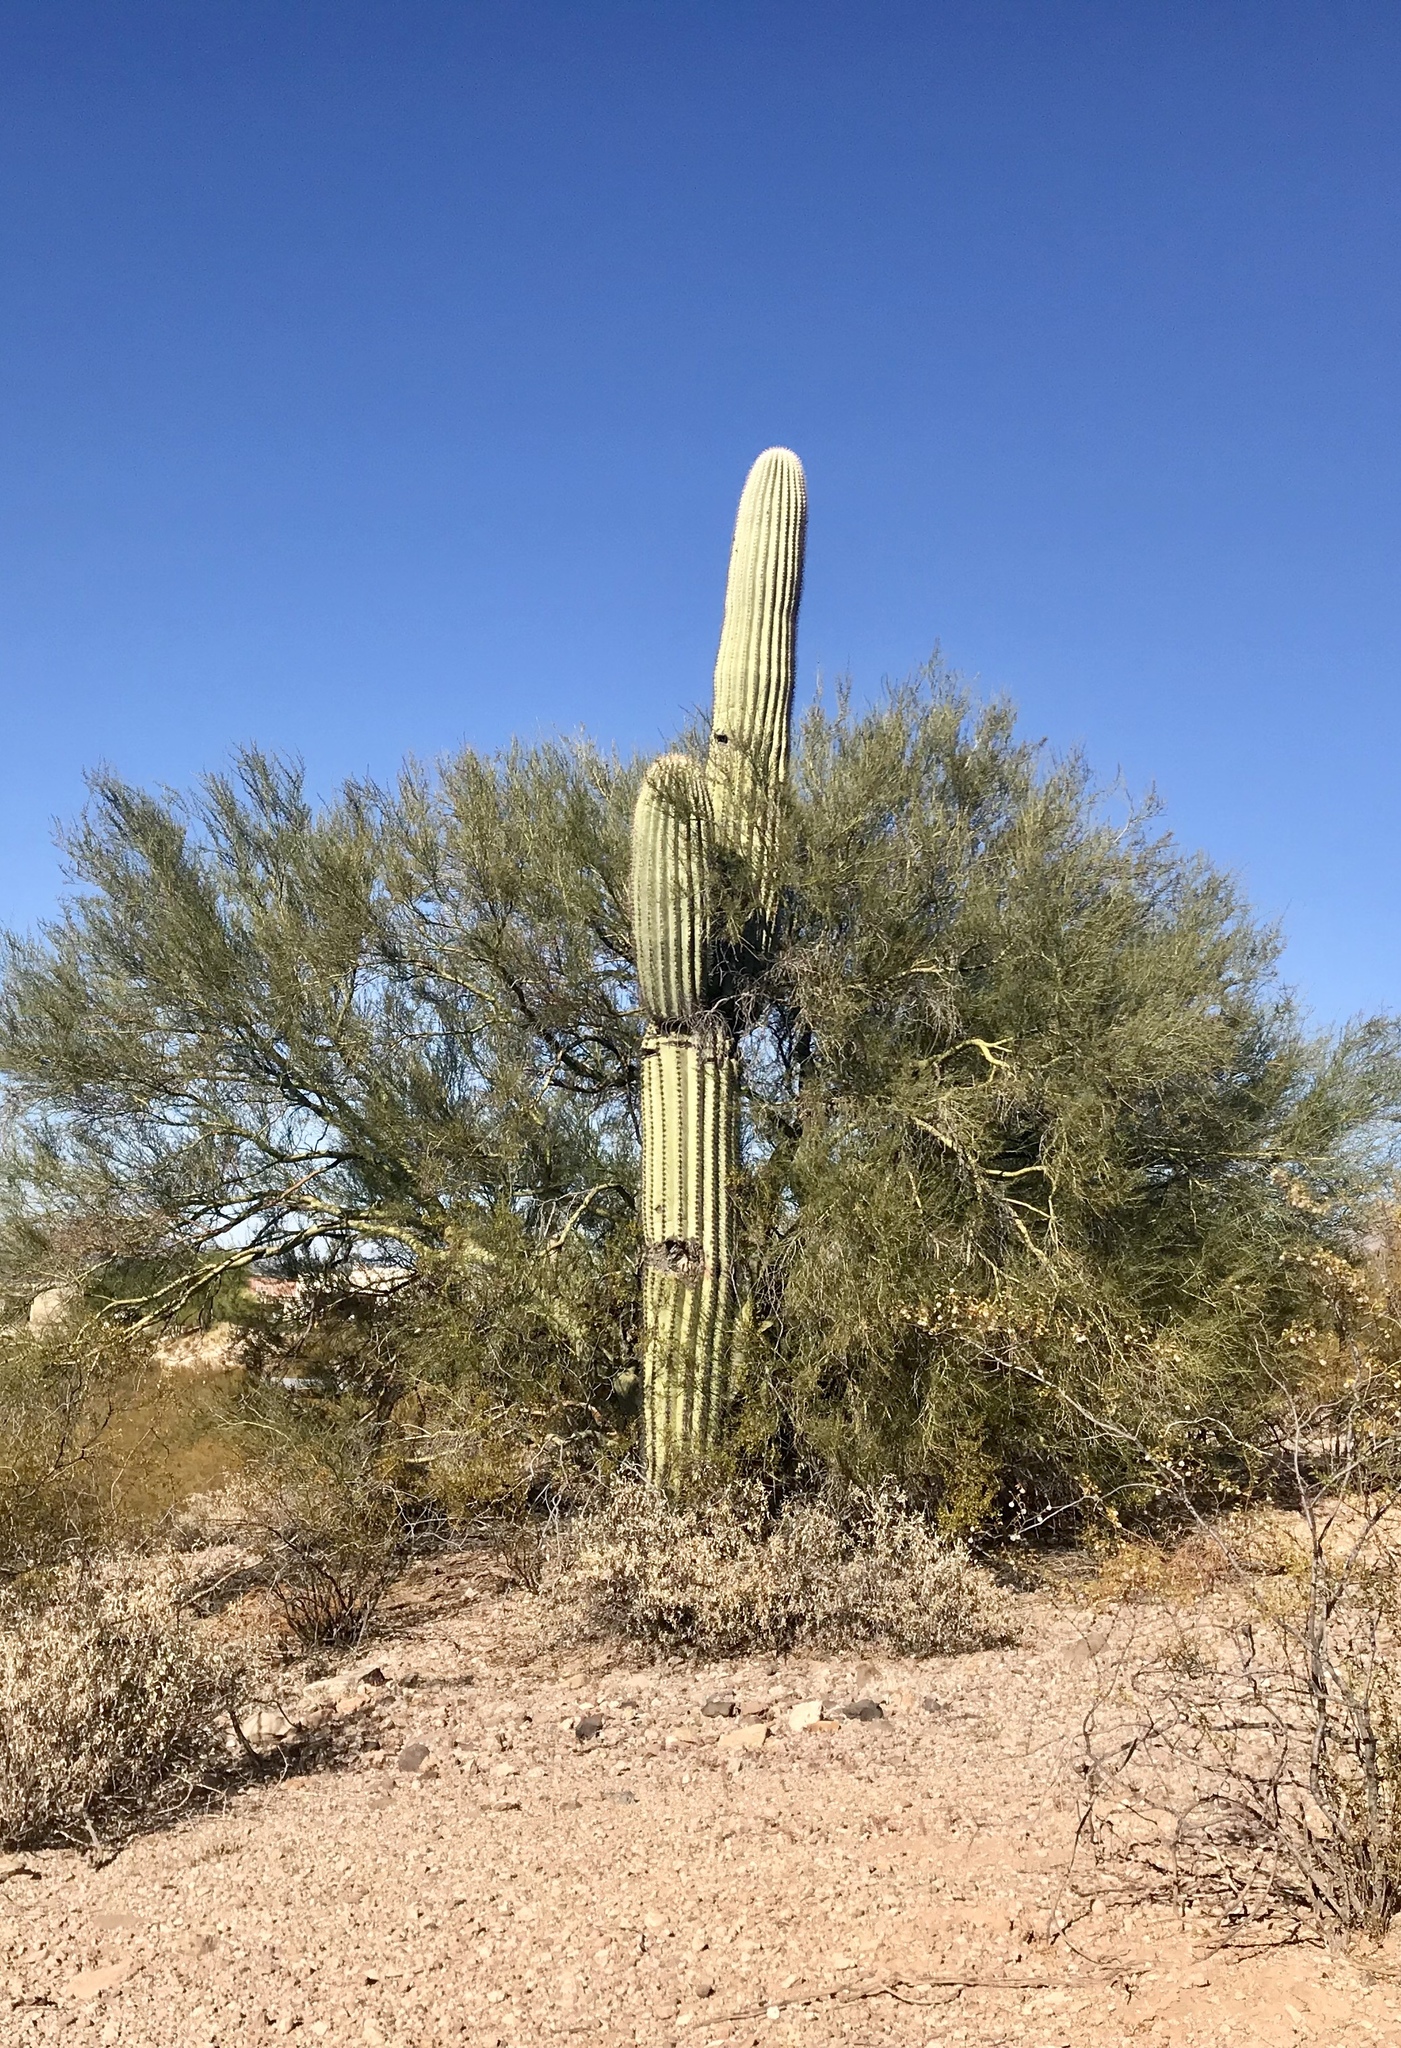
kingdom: Plantae
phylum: Tracheophyta
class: Magnoliopsida
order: Fabales
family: Fabaceae
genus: Parkinsonia
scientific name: Parkinsonia microphylla
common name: Yellow paloverde
